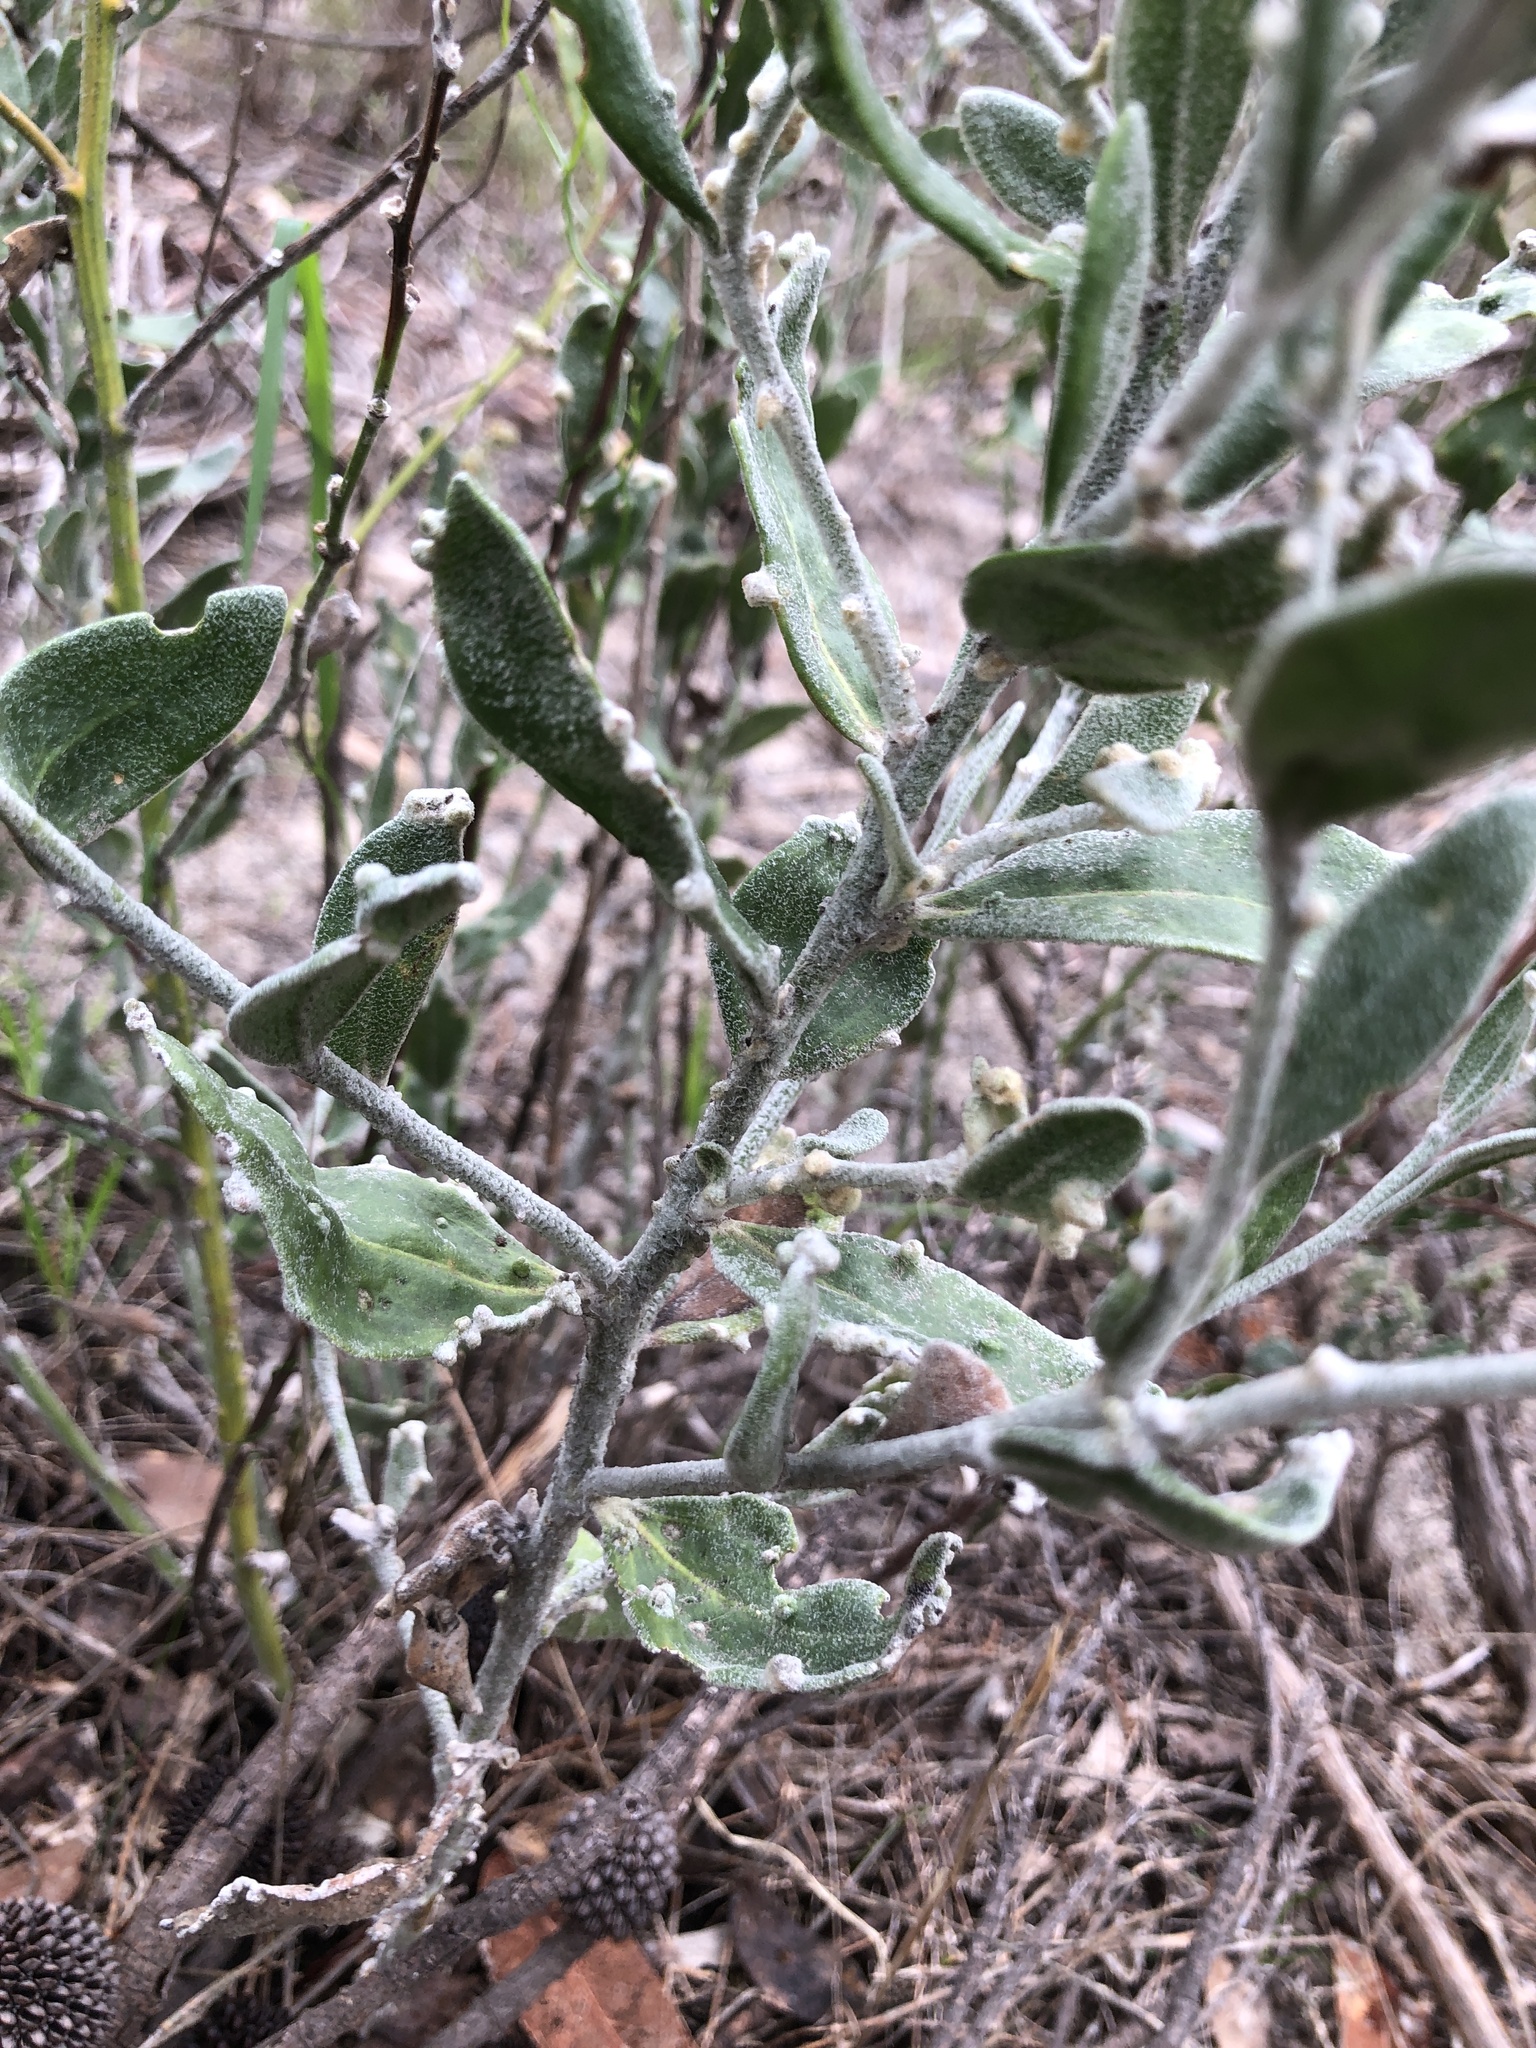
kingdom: Plantae
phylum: Tracheophyta
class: Magnoliopsida
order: Asterales
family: Goodeniaceae
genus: Dampiera
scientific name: Dampiera lanceolata
